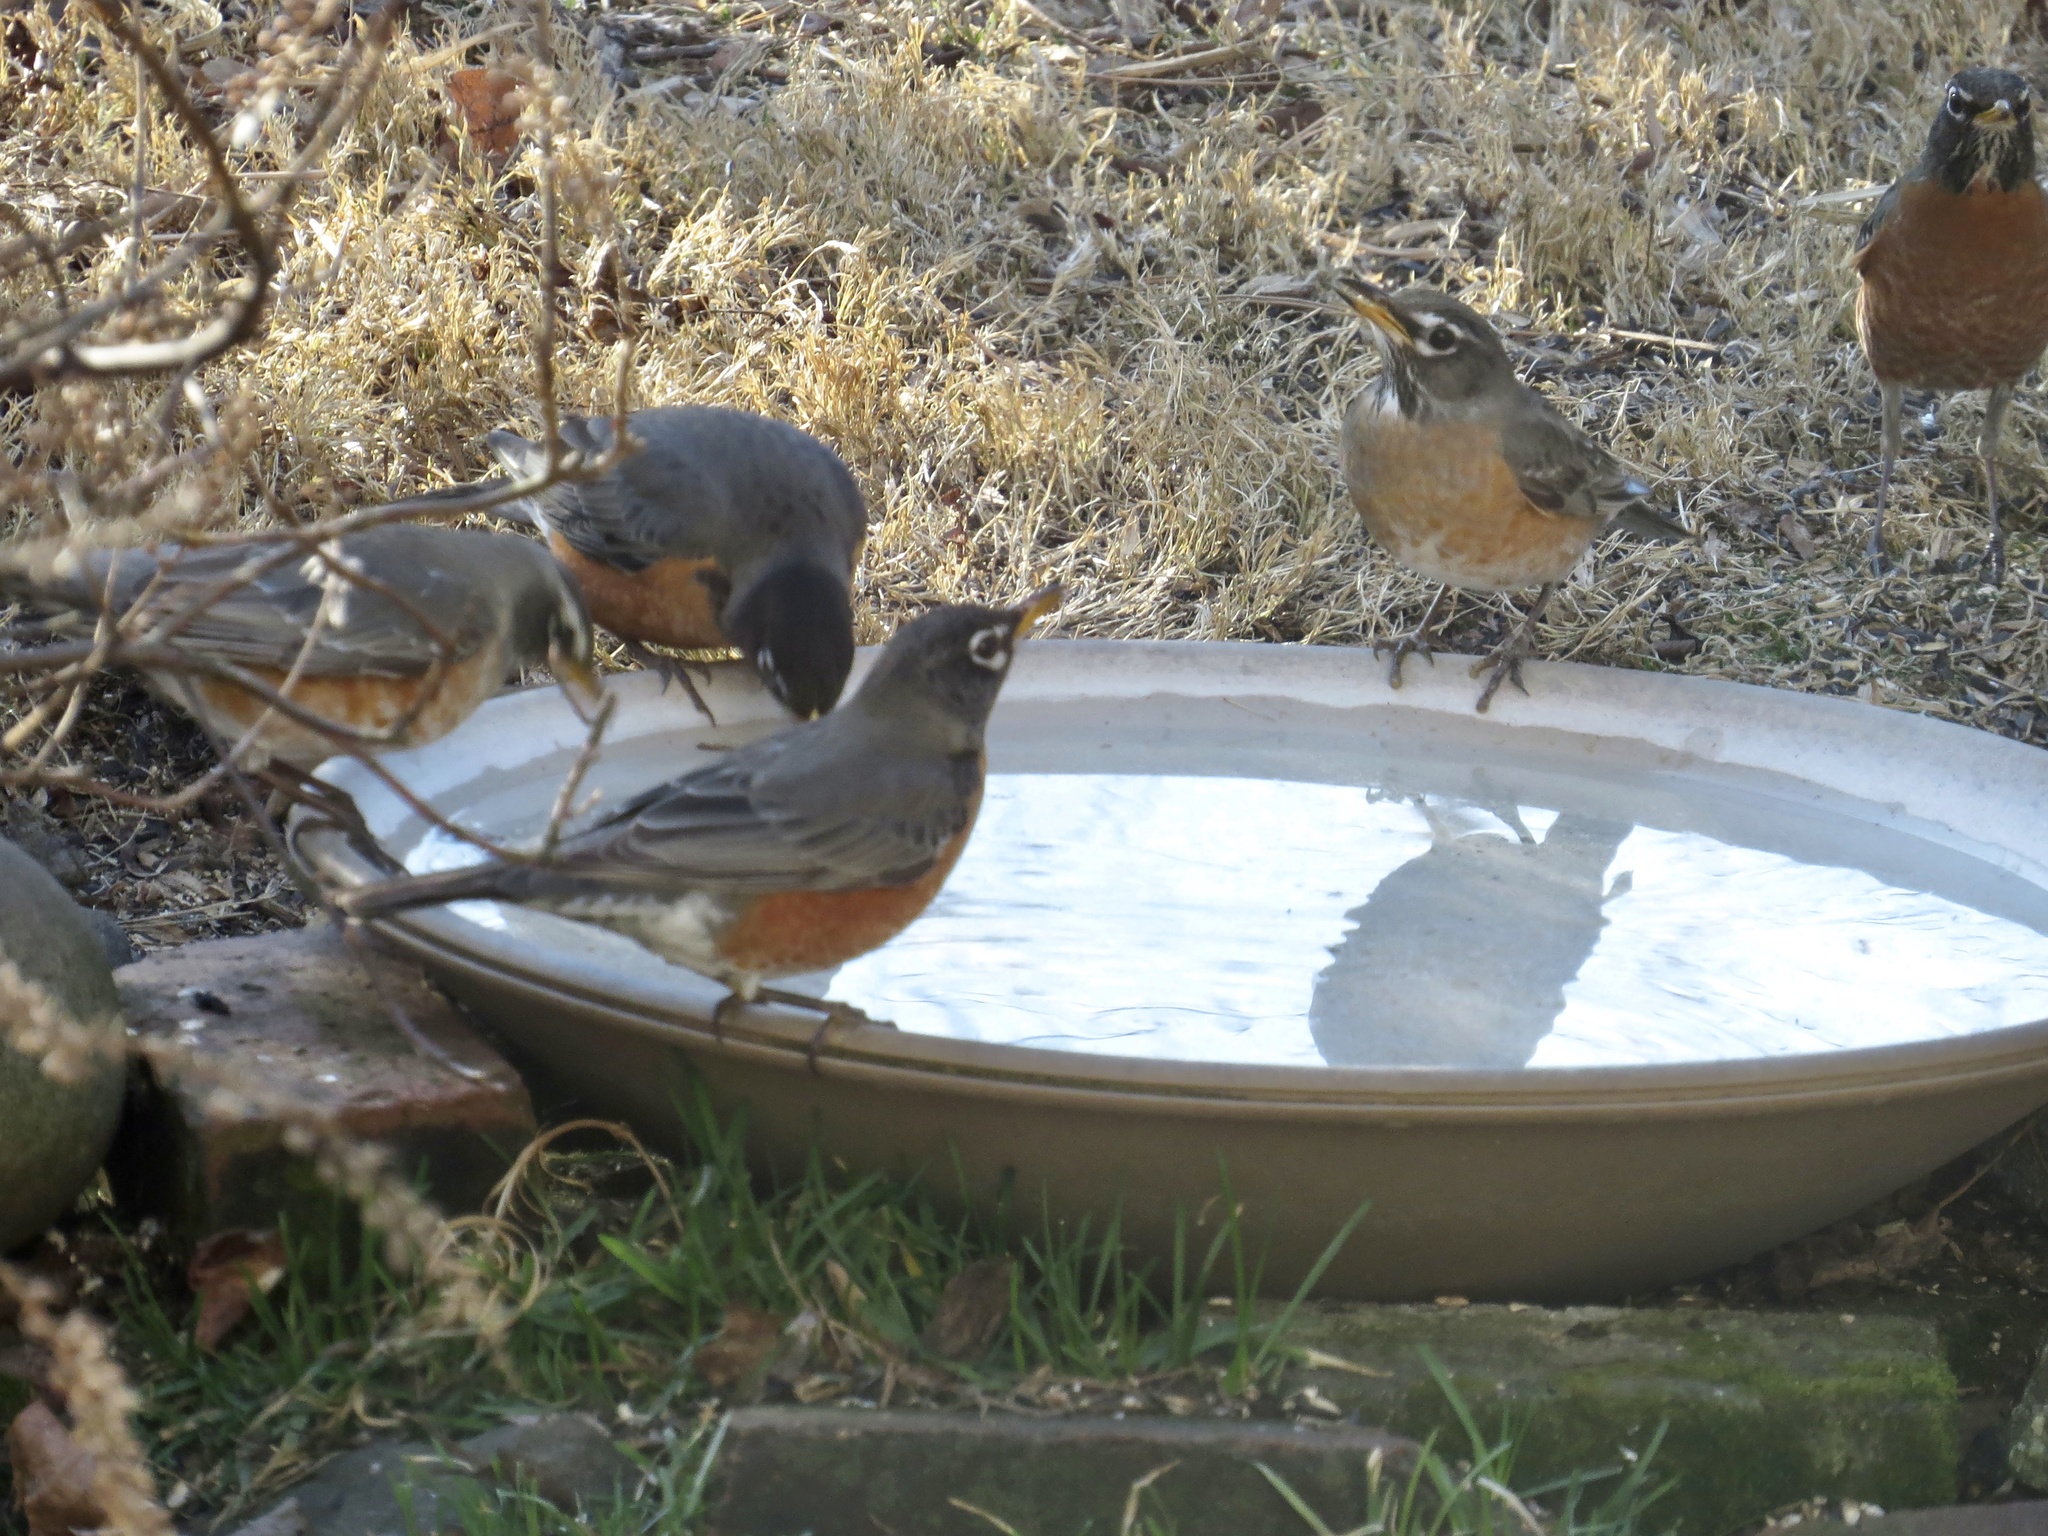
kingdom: Animalia
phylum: Chordata
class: Aves
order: Passeriformes
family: Turdidae
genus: Turdus
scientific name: Turdus migratorius
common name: American robin
